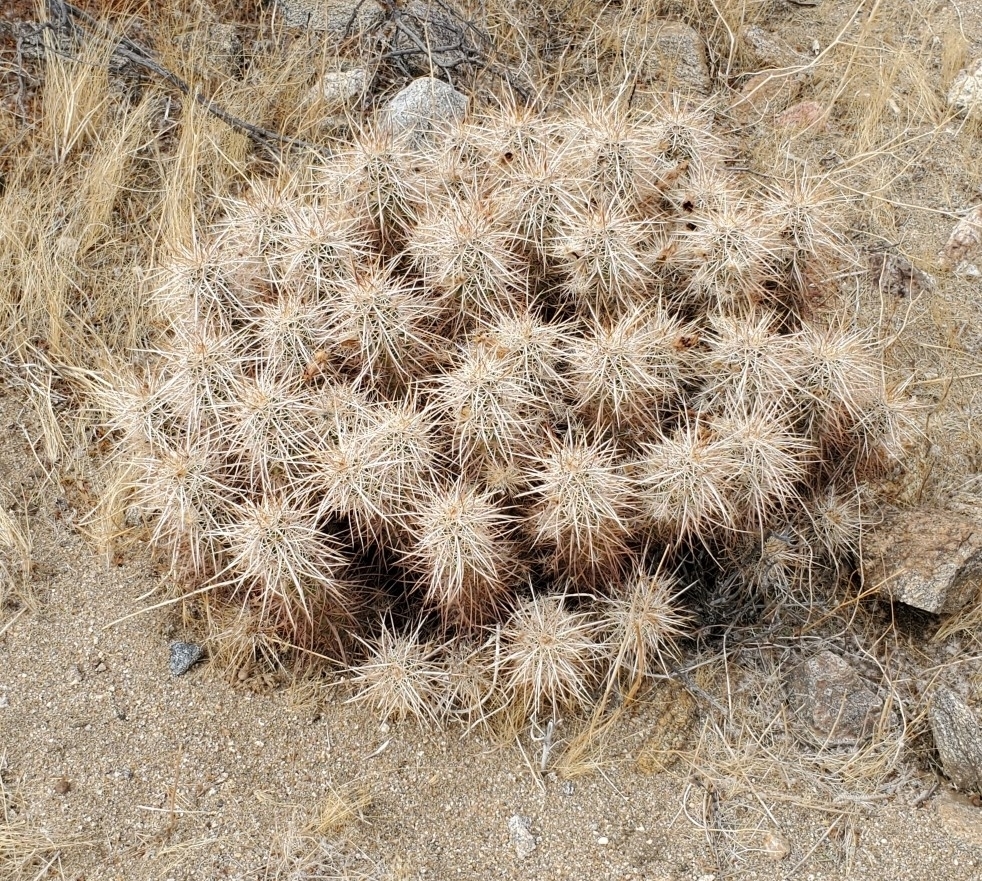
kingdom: Plantae
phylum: Tracheophyta
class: Magnoliopsida
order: Caryophyllales
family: Cactaceae
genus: Echinocereus
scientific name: Echinocereus engelmannii
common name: Engelmann's hedgehog cactus
